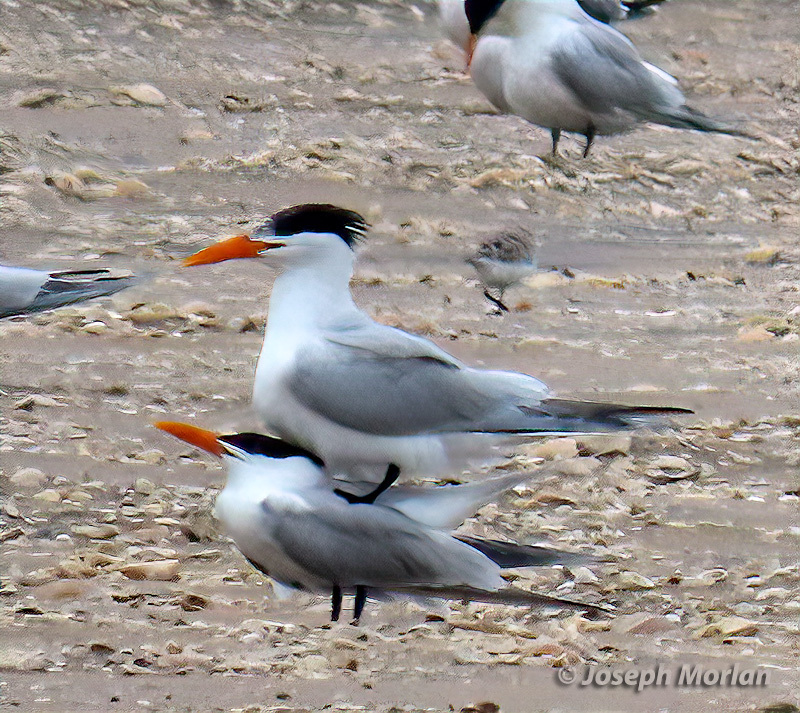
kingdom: Animalia
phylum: Chordata
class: Aves
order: Charadriiformes
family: Laridae
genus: Thalasseus
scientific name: Thalasseus maximus
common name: Royal tern
